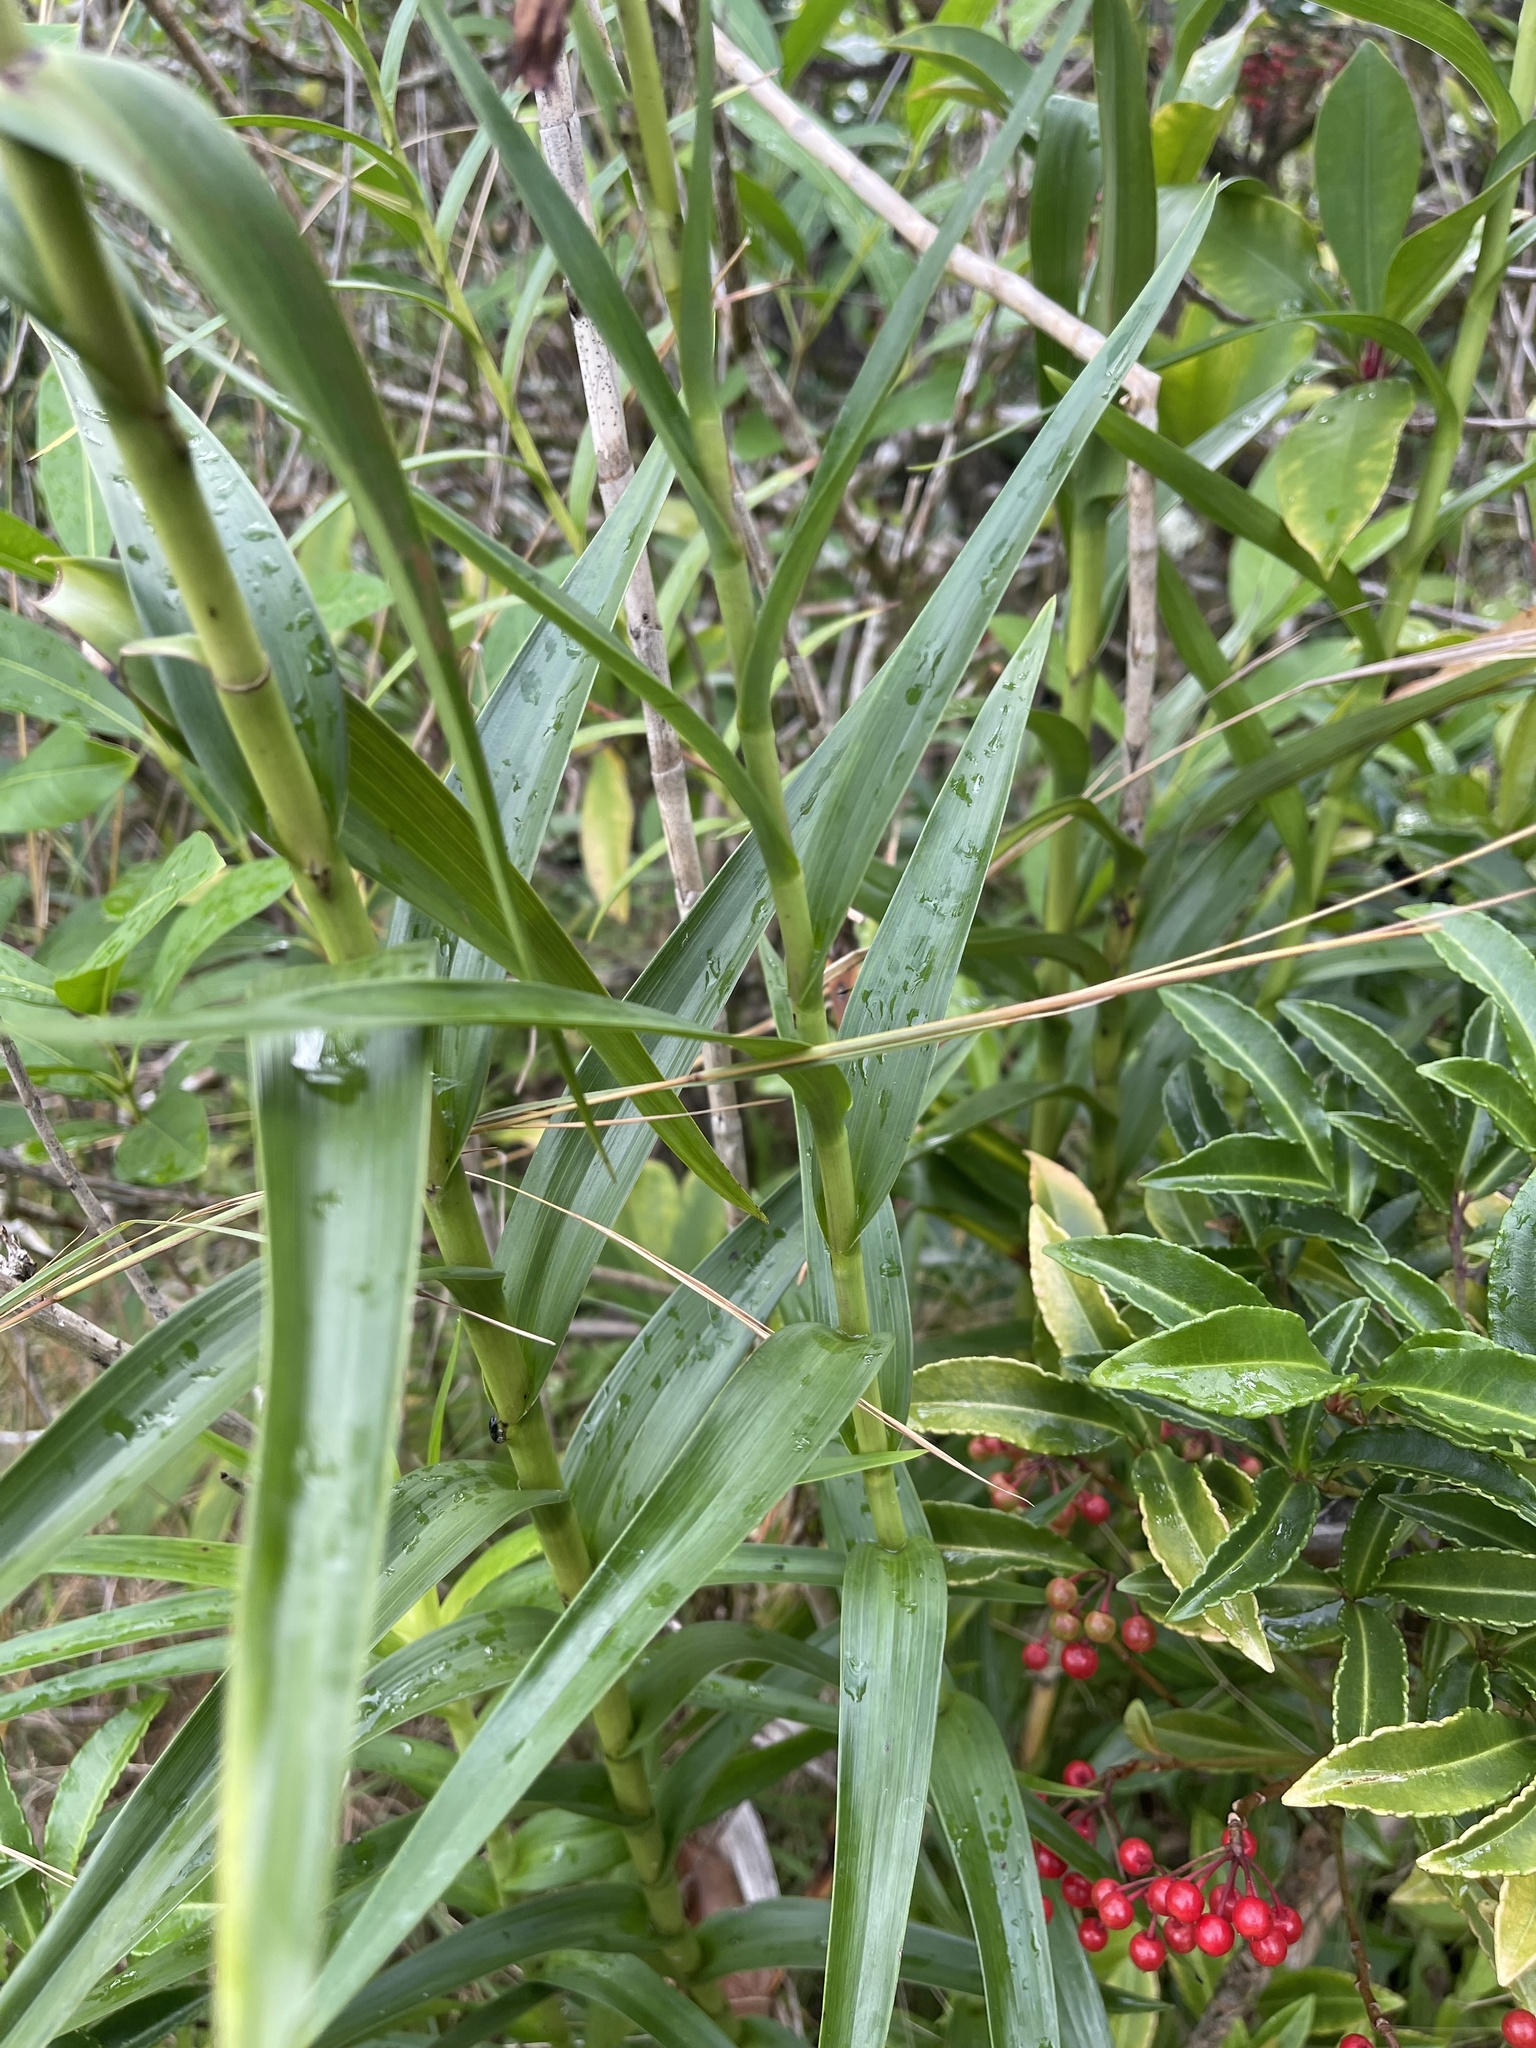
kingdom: Plantae
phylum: Tracheophyta
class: Liliopsida
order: Asparagales
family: Orchidaceae
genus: Arundina
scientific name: Arundina graminifolia
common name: Bamboo orchid
